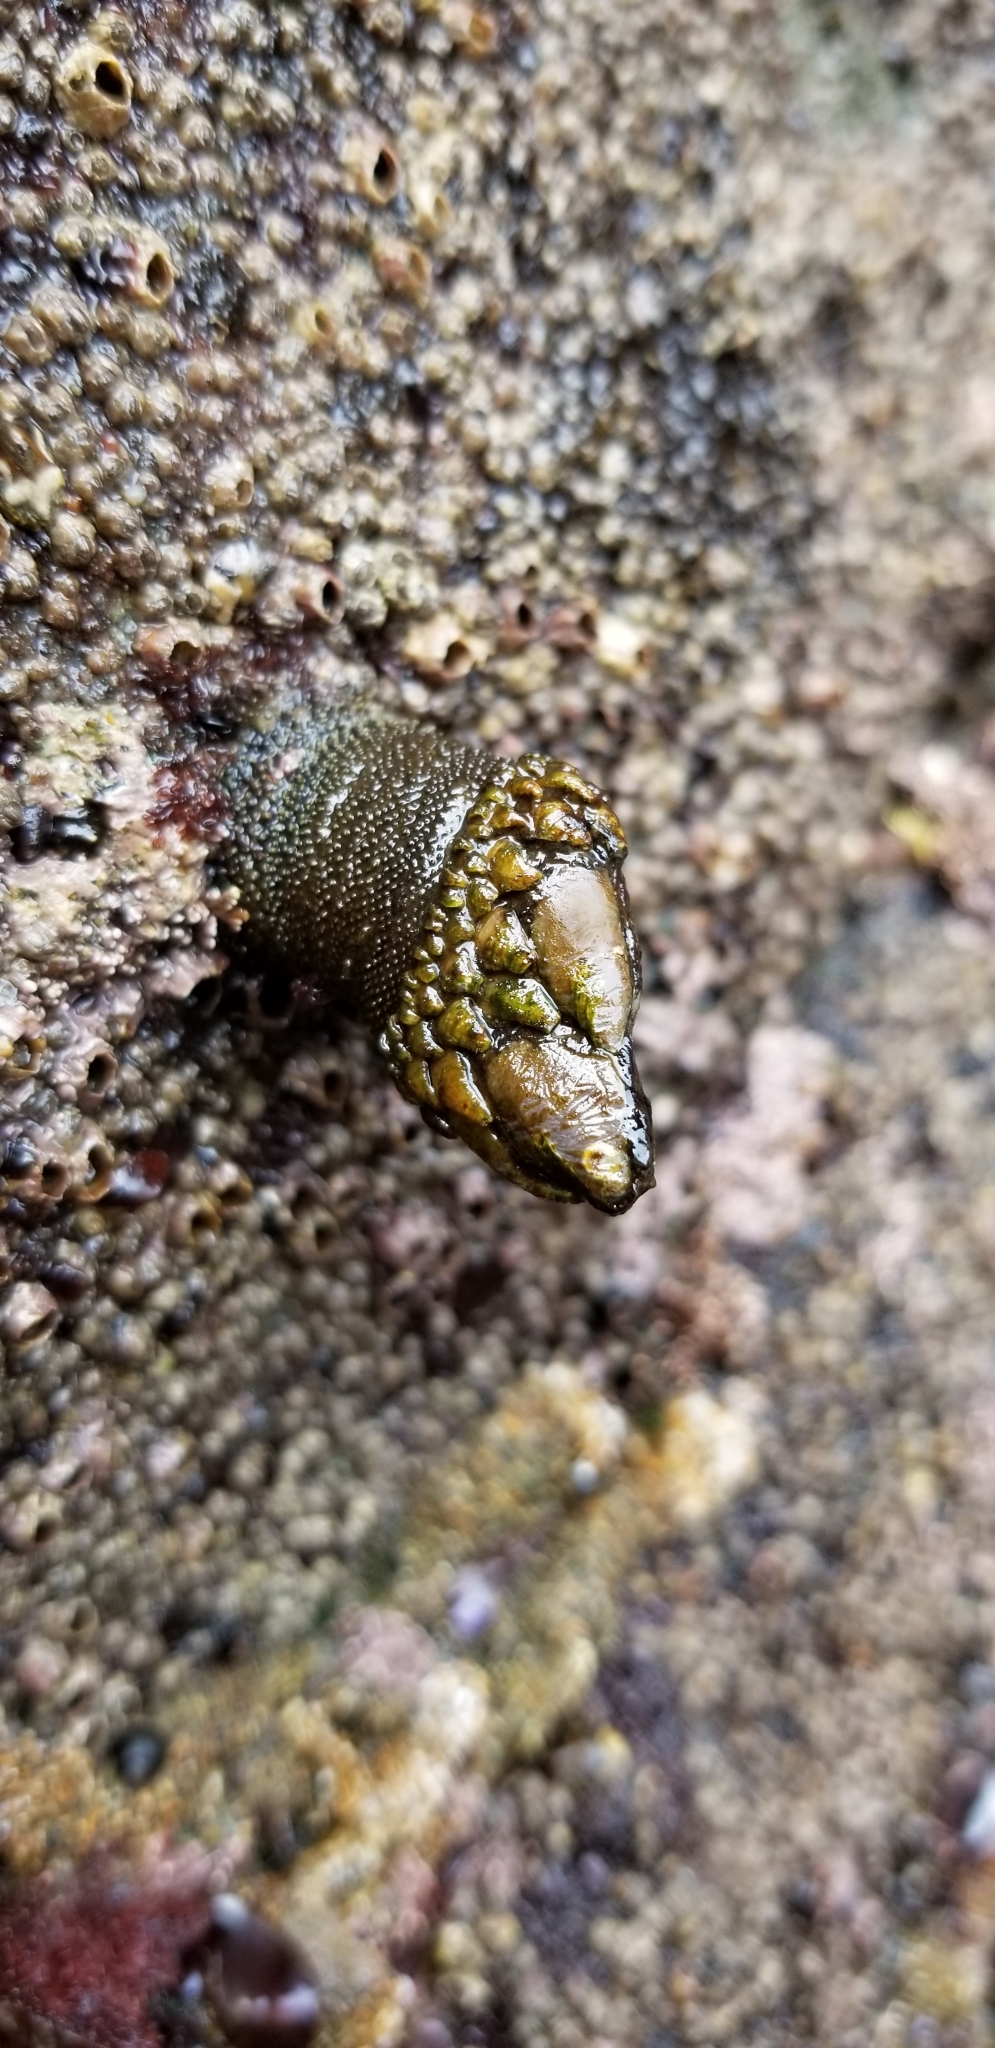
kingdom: Animalia
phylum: Arthropoda
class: Maxillopoda
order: Pedunculata
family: Pollicipedidae
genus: Pollicipes
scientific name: Pollicipes polymerus
